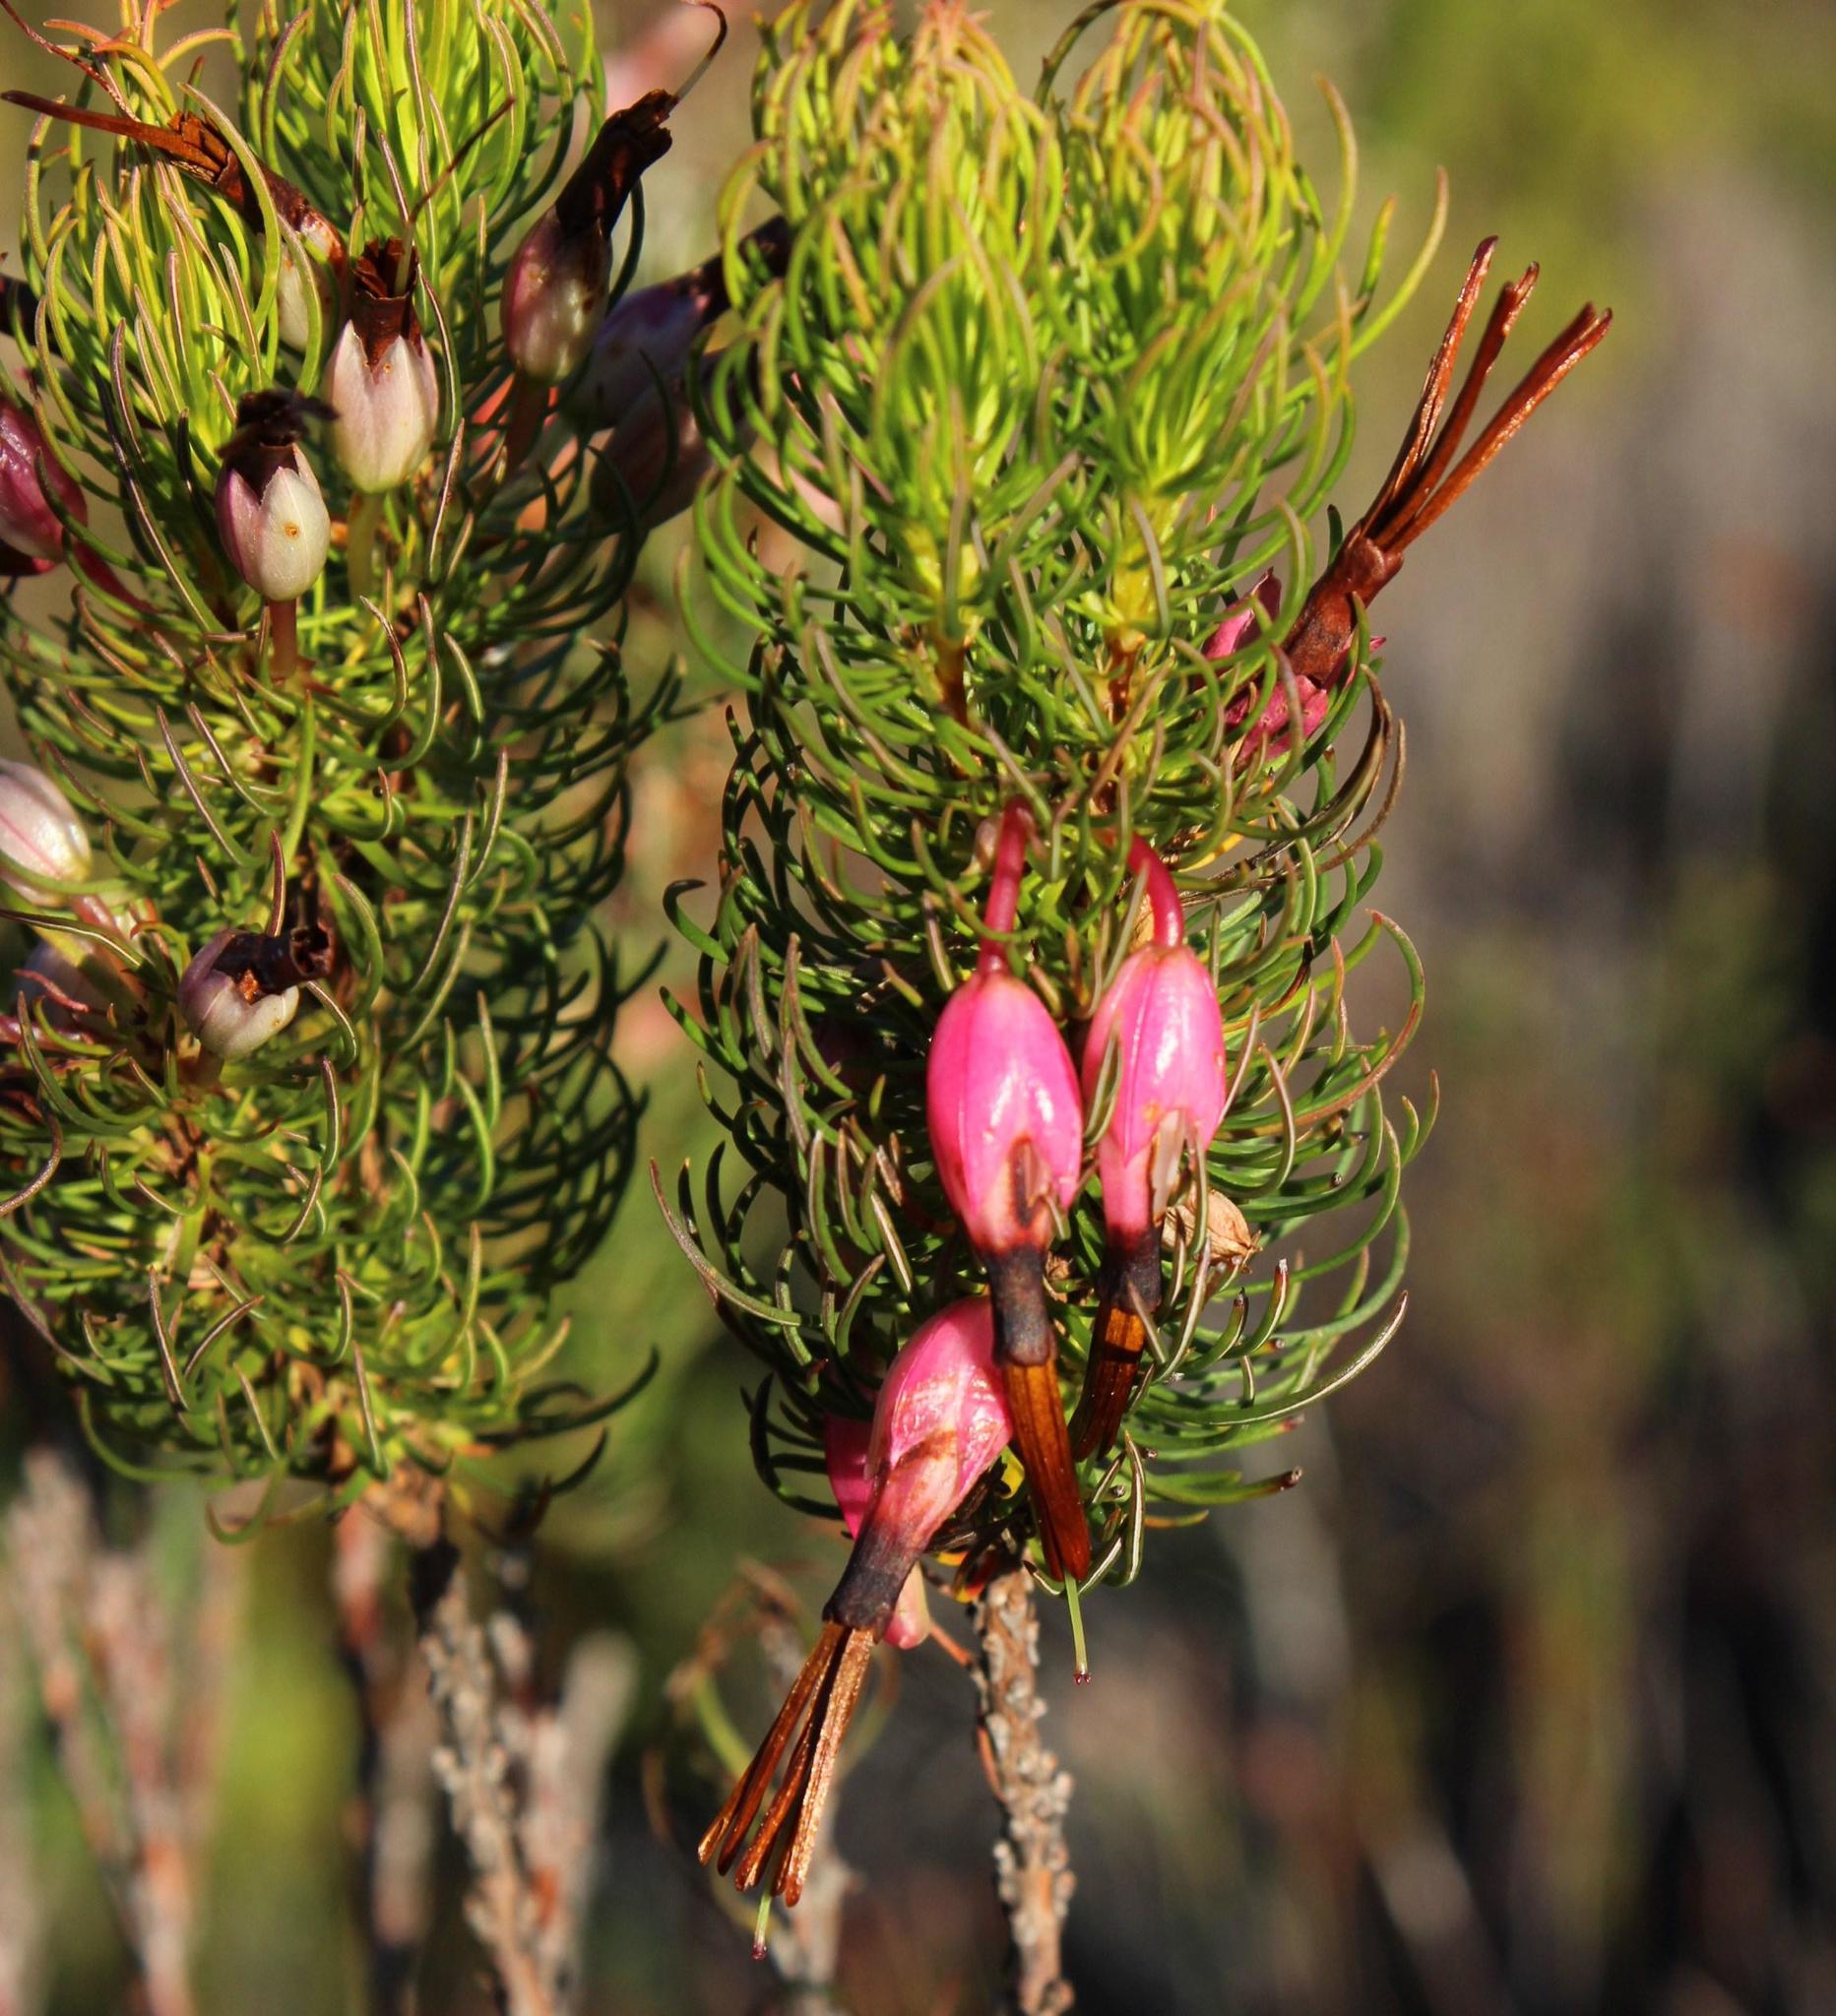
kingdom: Plantae
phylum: Tracheophyta
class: Magnoliopsida
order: Ericales
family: Ericaceae
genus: Erica
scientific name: Erica plukenetii
